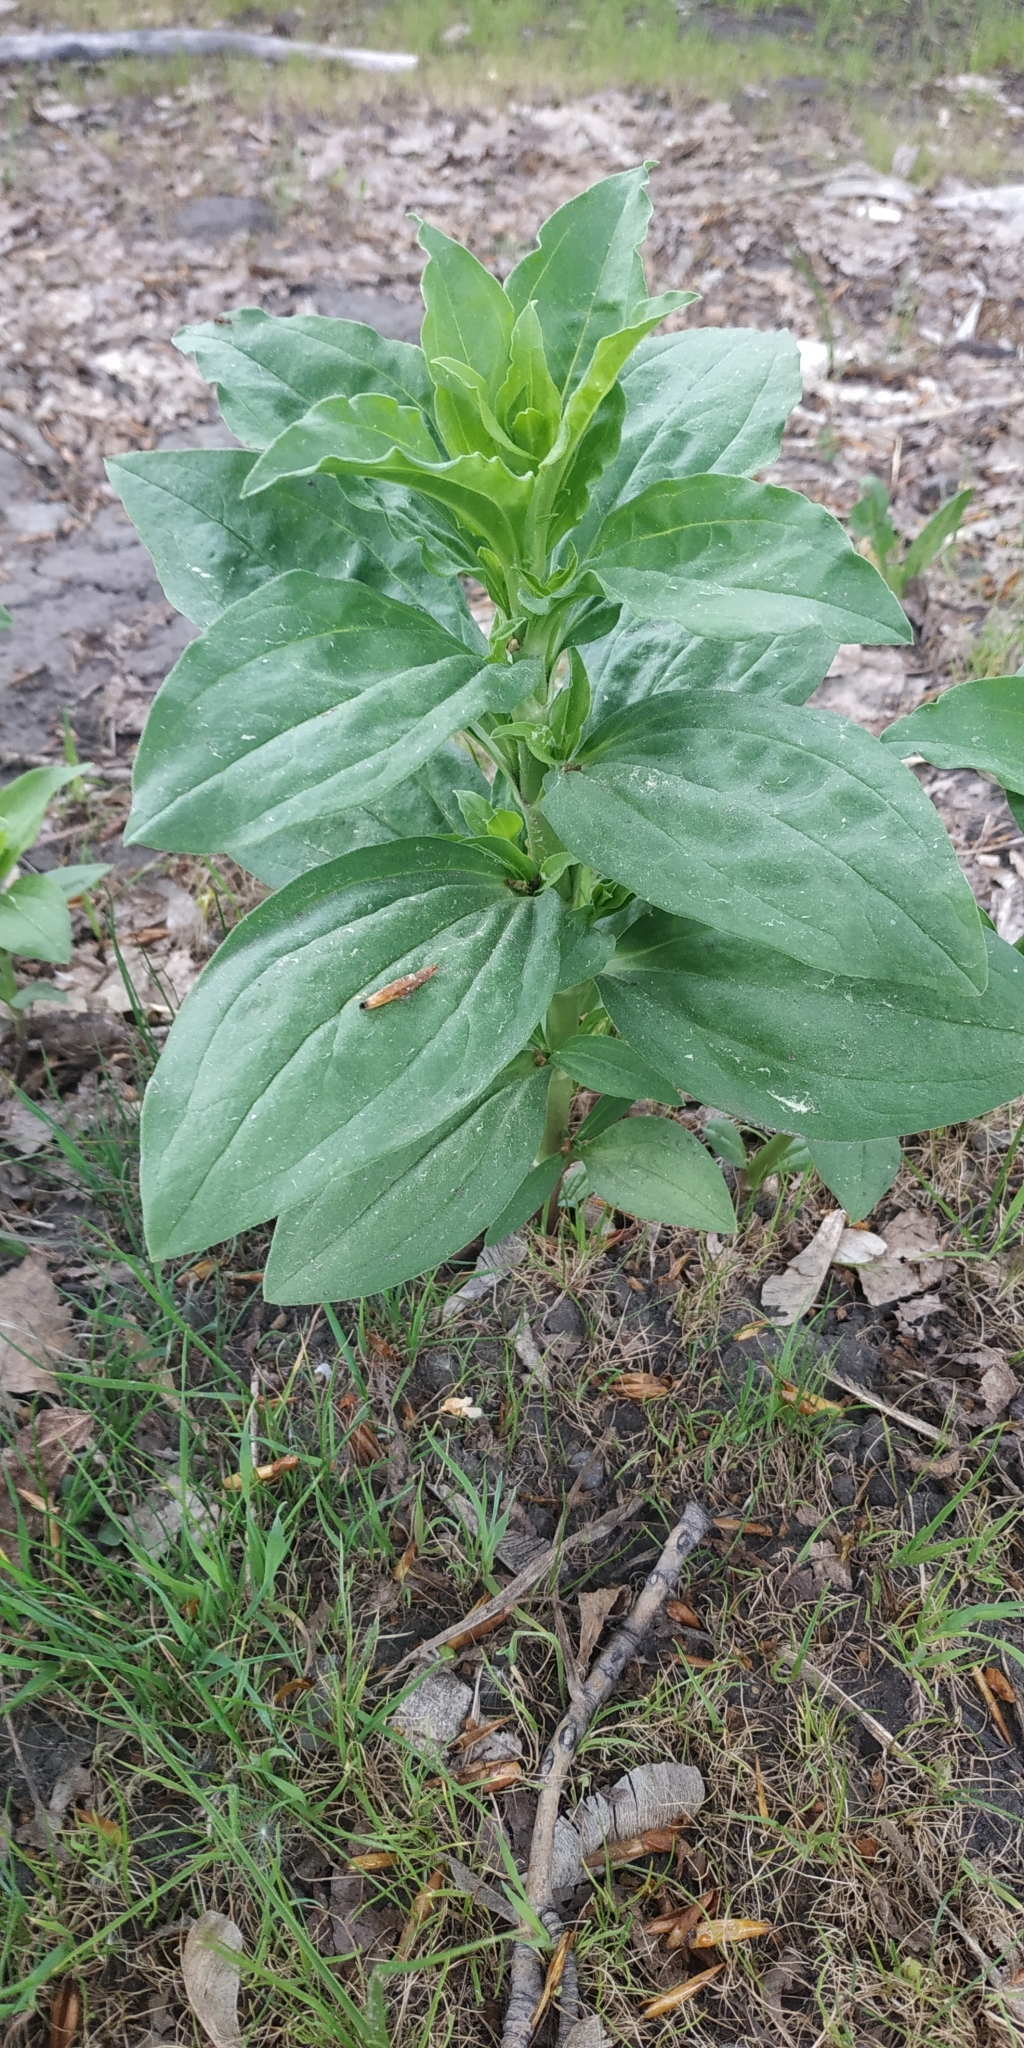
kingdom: Plantae
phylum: Tracheophyta
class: Magnoliopsida
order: Caryophyllales
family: Caryophyllaceae
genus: Saponaria
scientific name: Saponaria officinalis
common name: Soapwort
